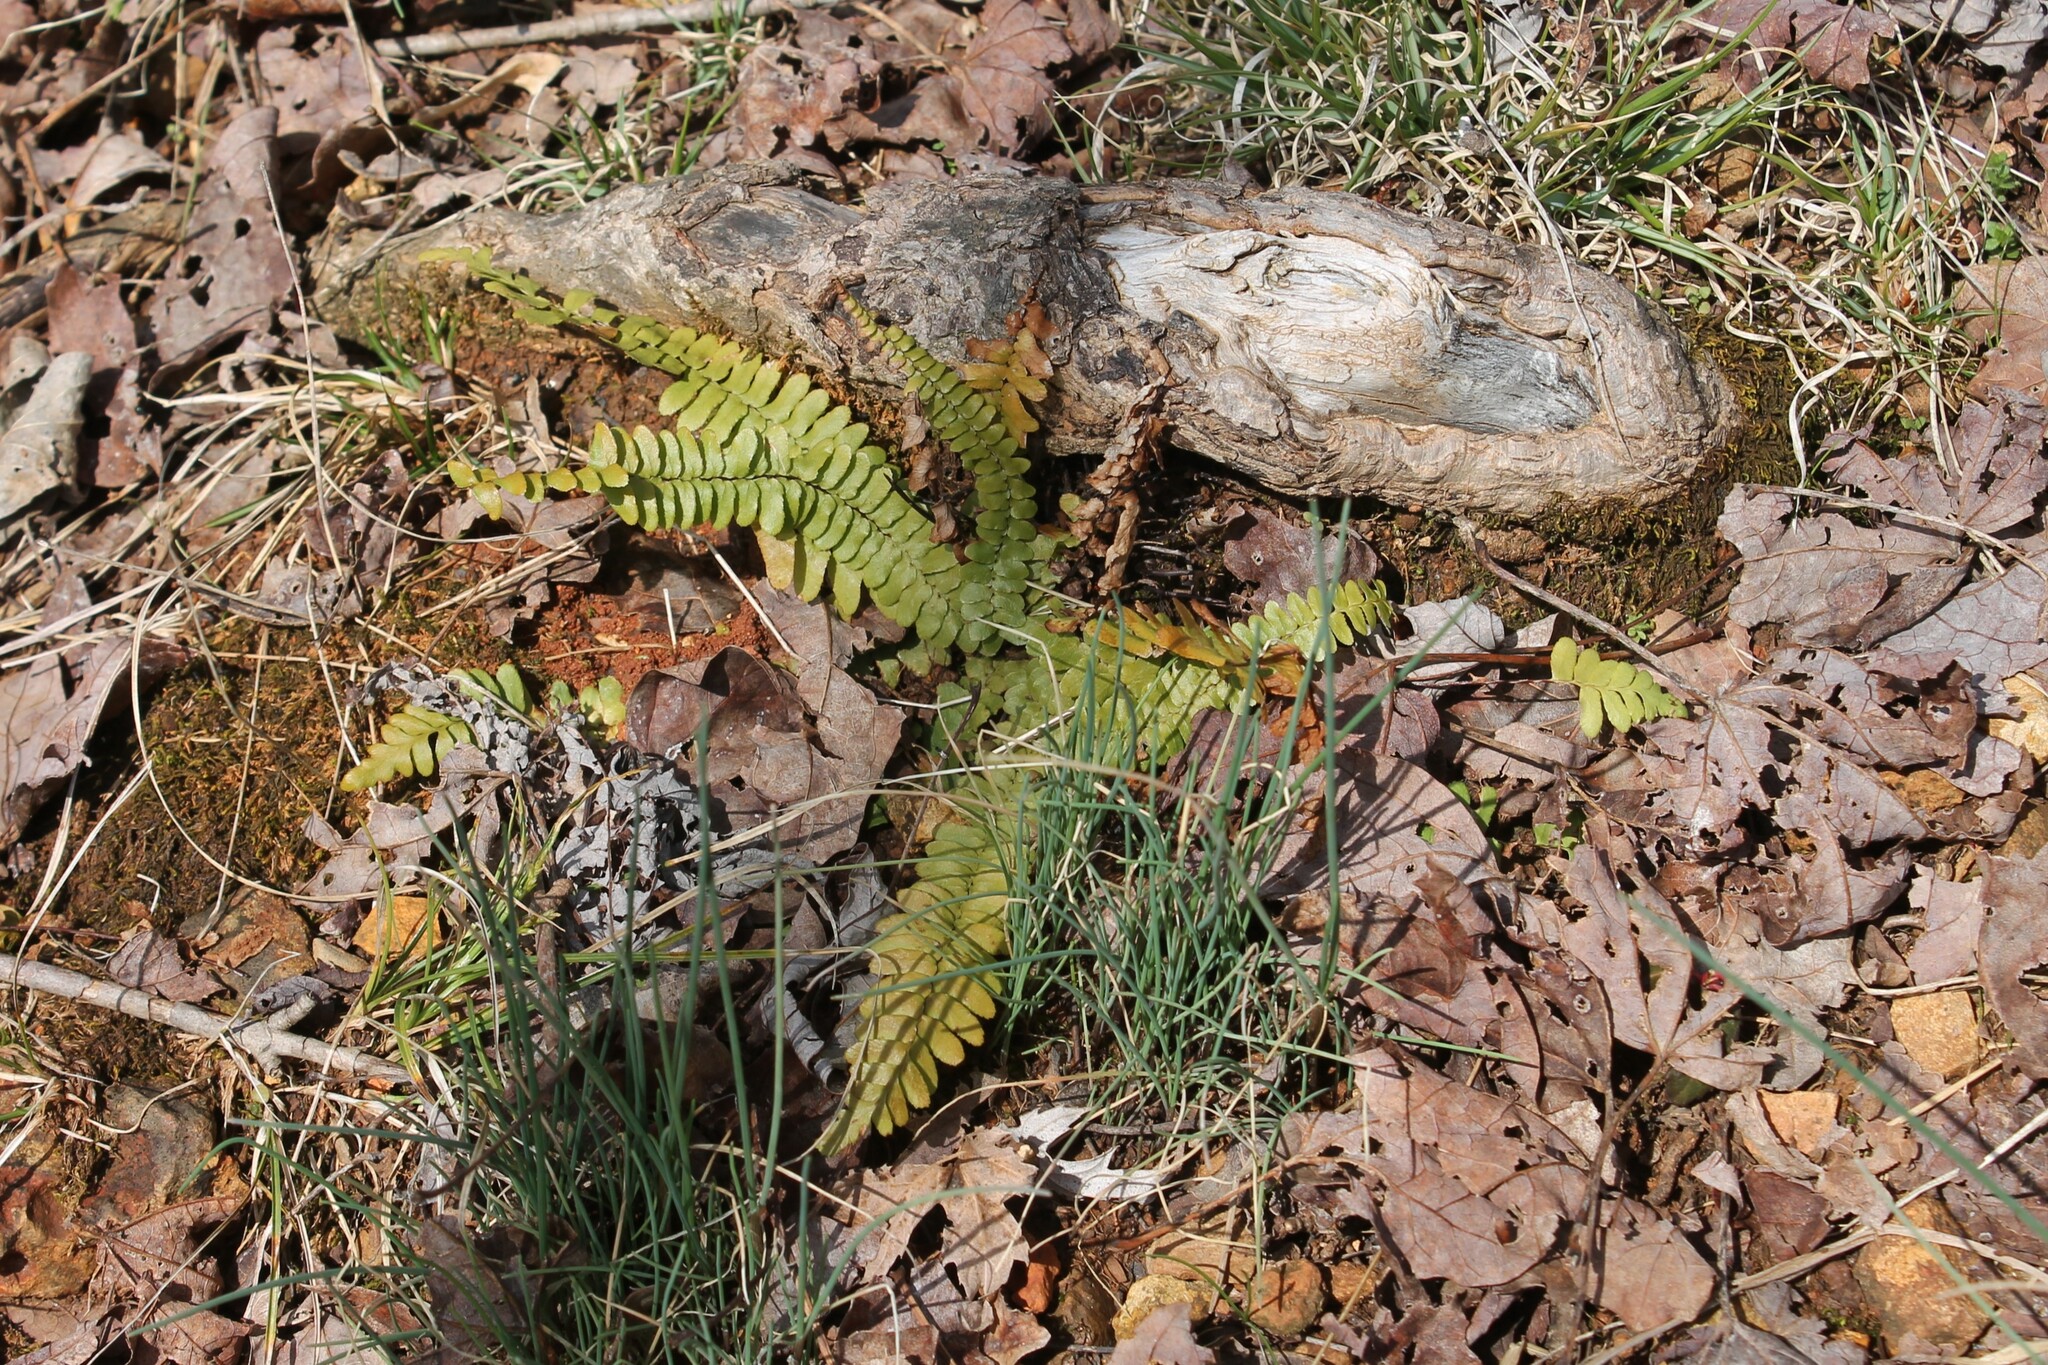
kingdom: Plantae
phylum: Tracheophyta
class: Polypodiopsida
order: Polypodiales
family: Aspleniaceae
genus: Asplenium
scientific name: Asplenium platyneuron
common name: Ebony spleenwort
